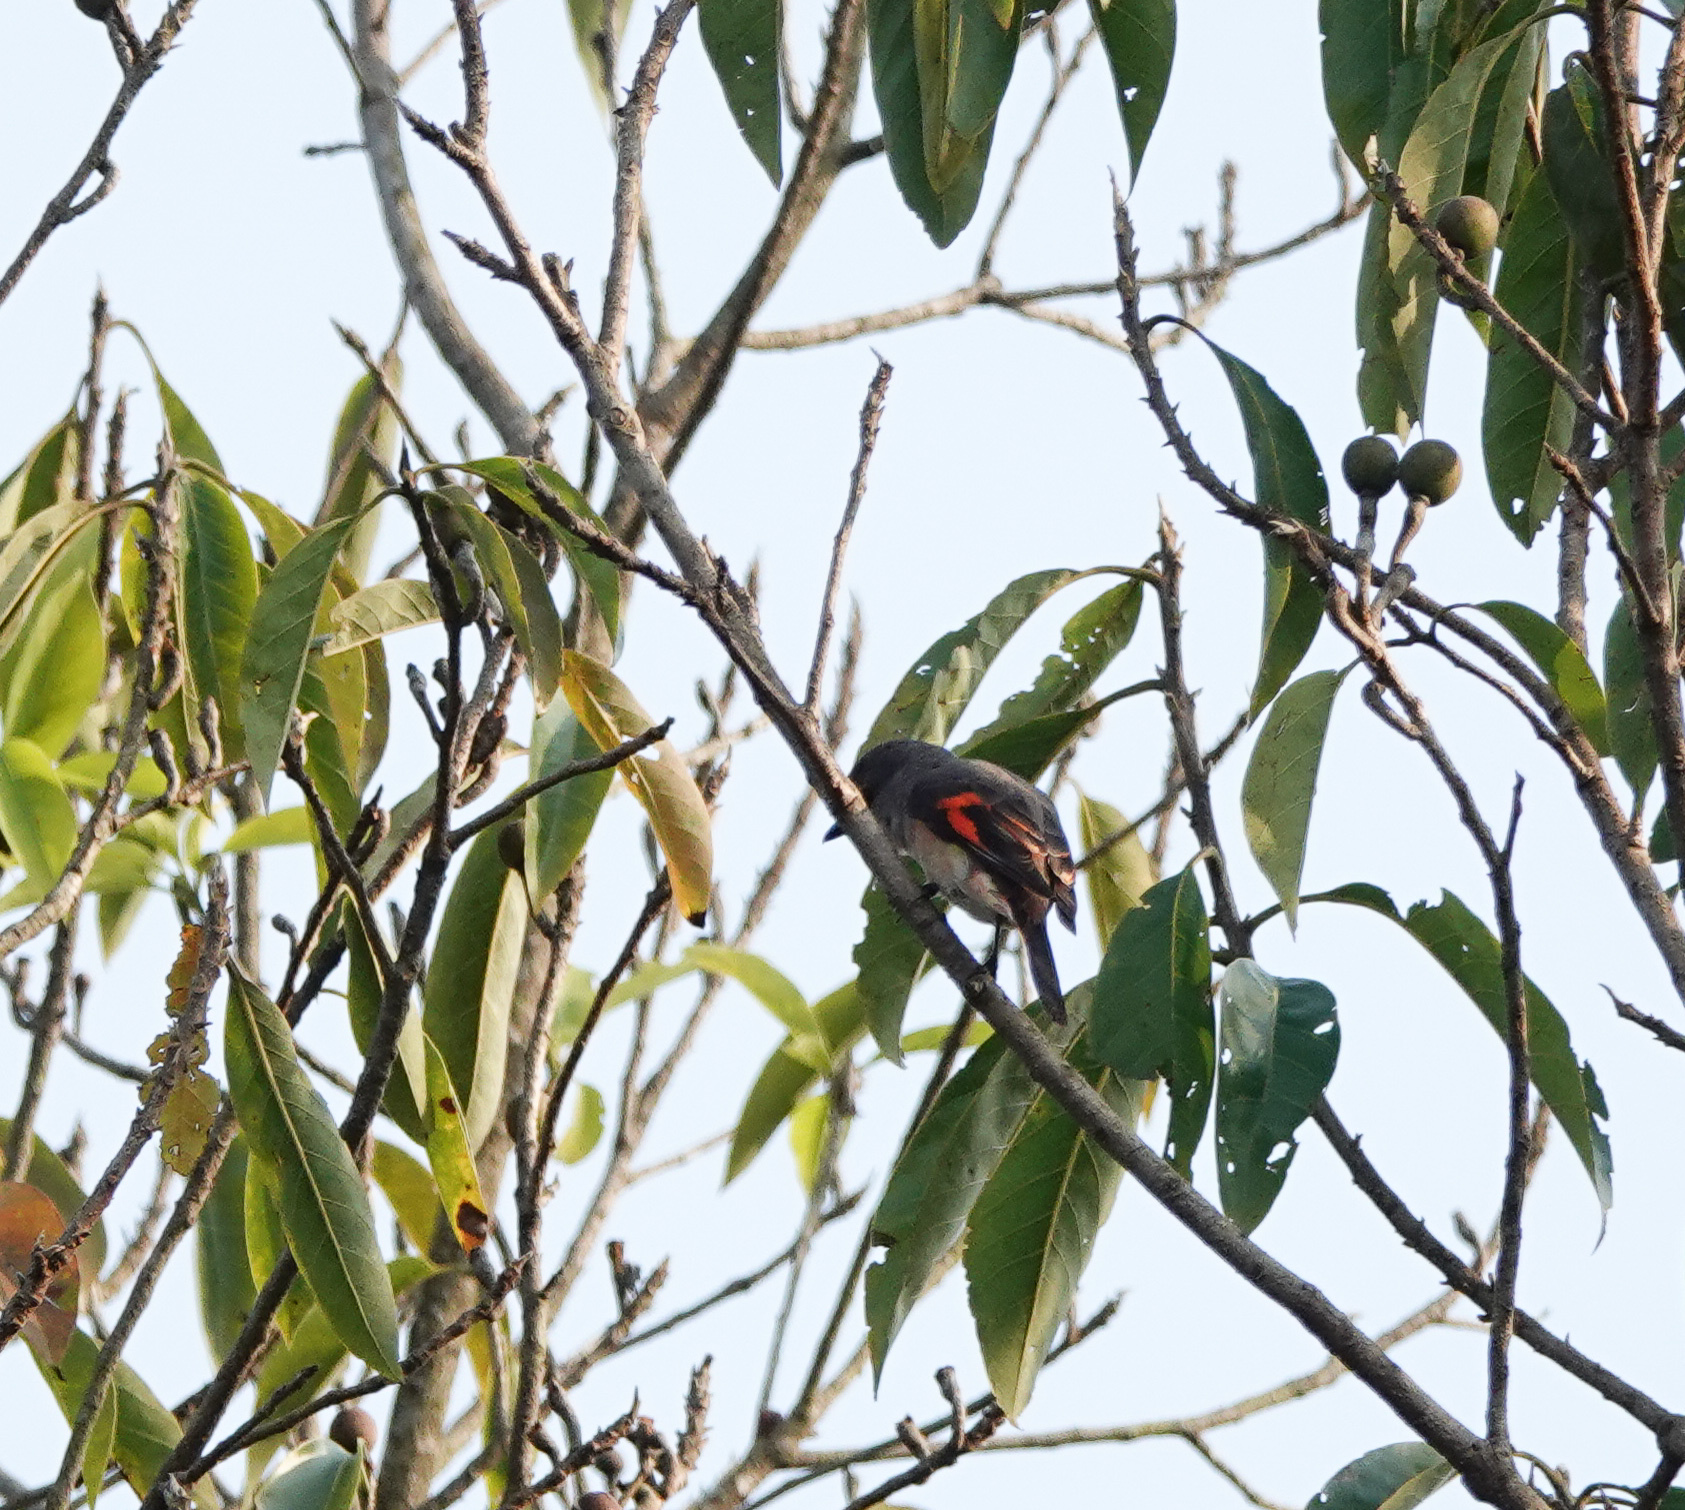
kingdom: Animalia
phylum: Chordata
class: Aves
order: Passeriformes
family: Campephagidae
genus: Pericrocotus
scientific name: Pericrocotus roseus
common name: Rosy minivet
